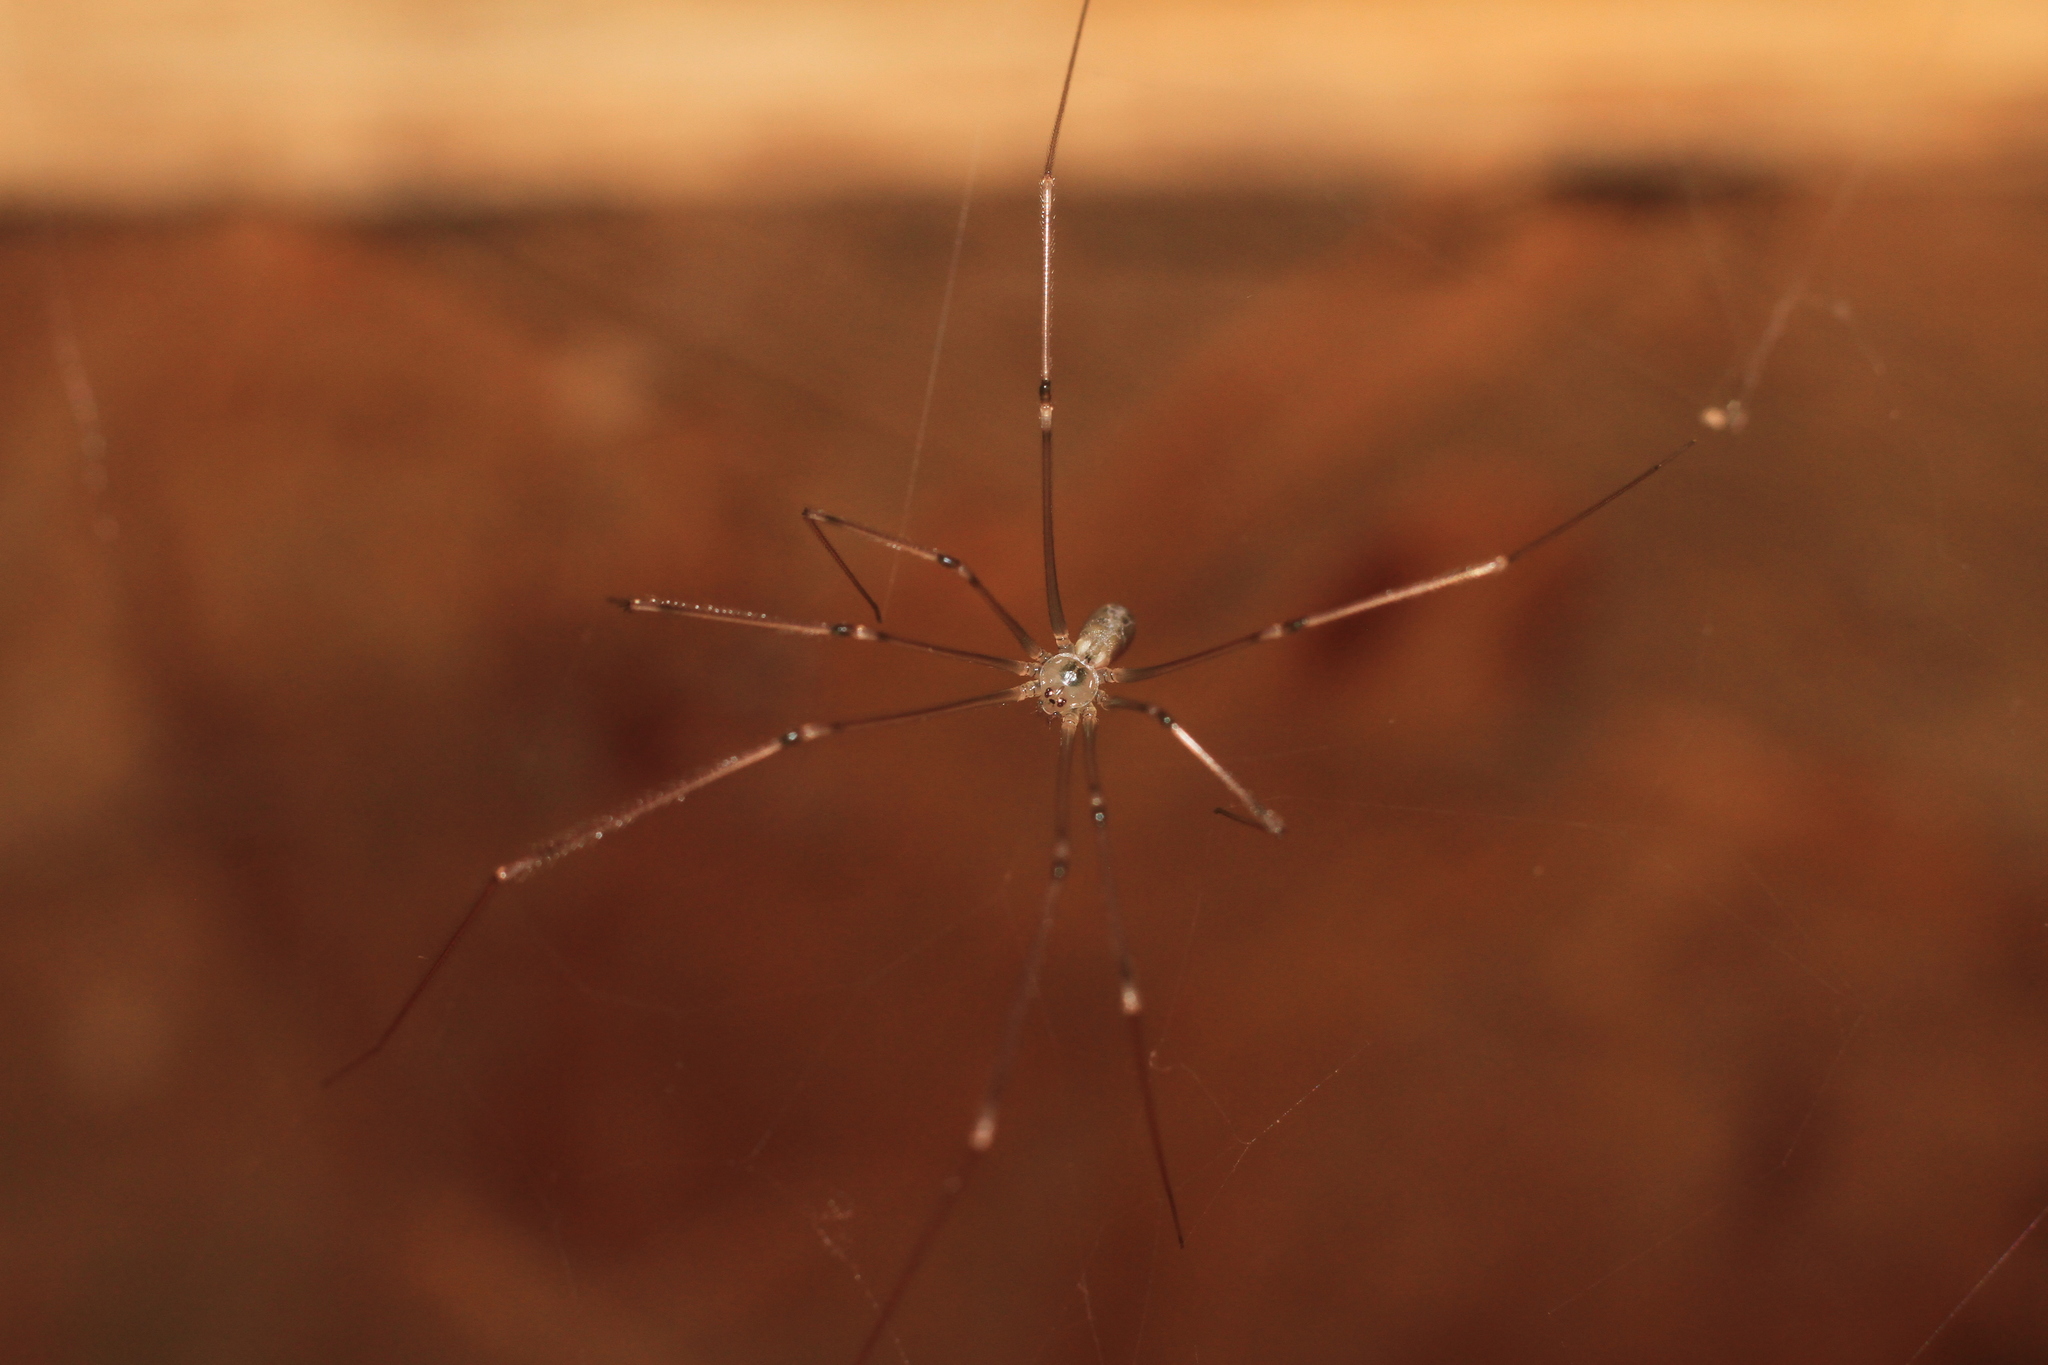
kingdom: Animalia
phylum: Arthropoda
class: Arachnida
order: Araneae
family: Pholcidae
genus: Pholcus
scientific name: Pholcus phalangioides
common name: Longbodied cellar spider
